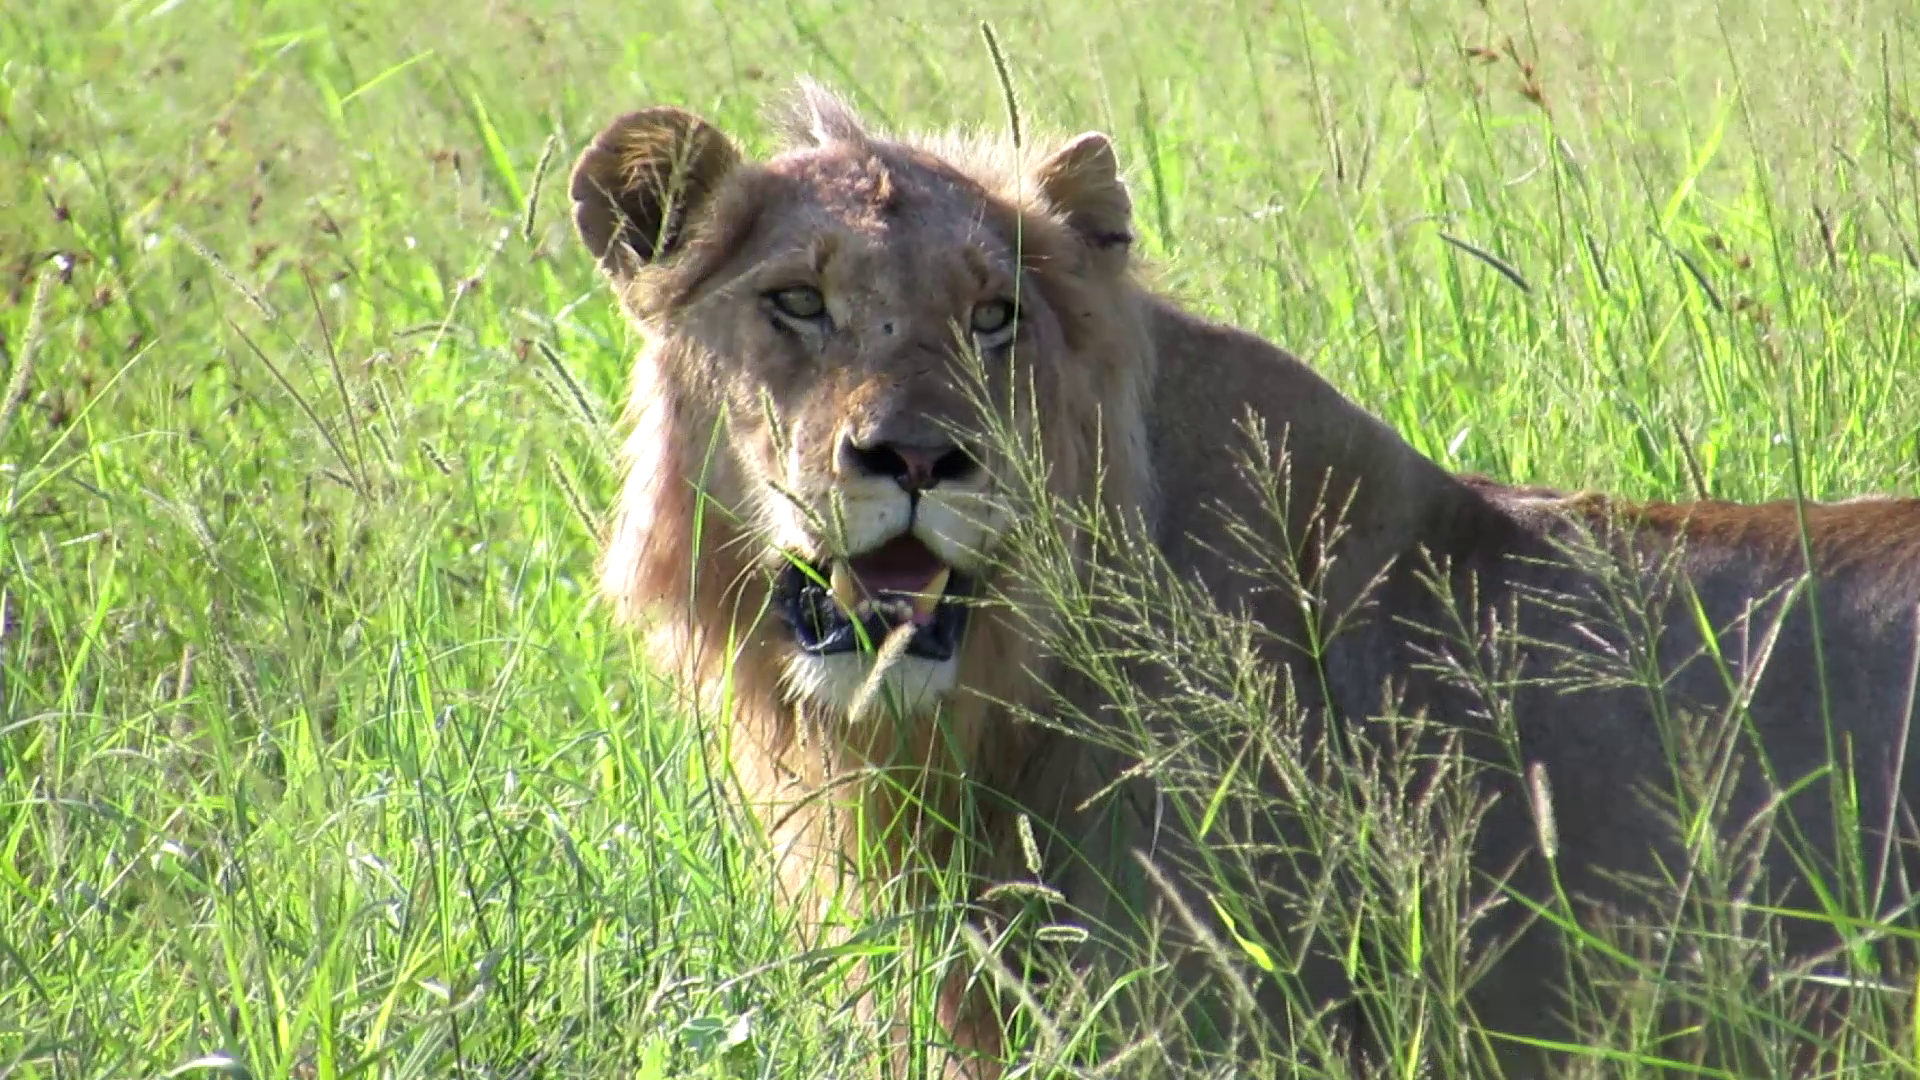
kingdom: Animalia
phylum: Chordata
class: Mammalia
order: Carnivora
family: Felidae
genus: Panthera
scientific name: Panthera leo
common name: Lion
